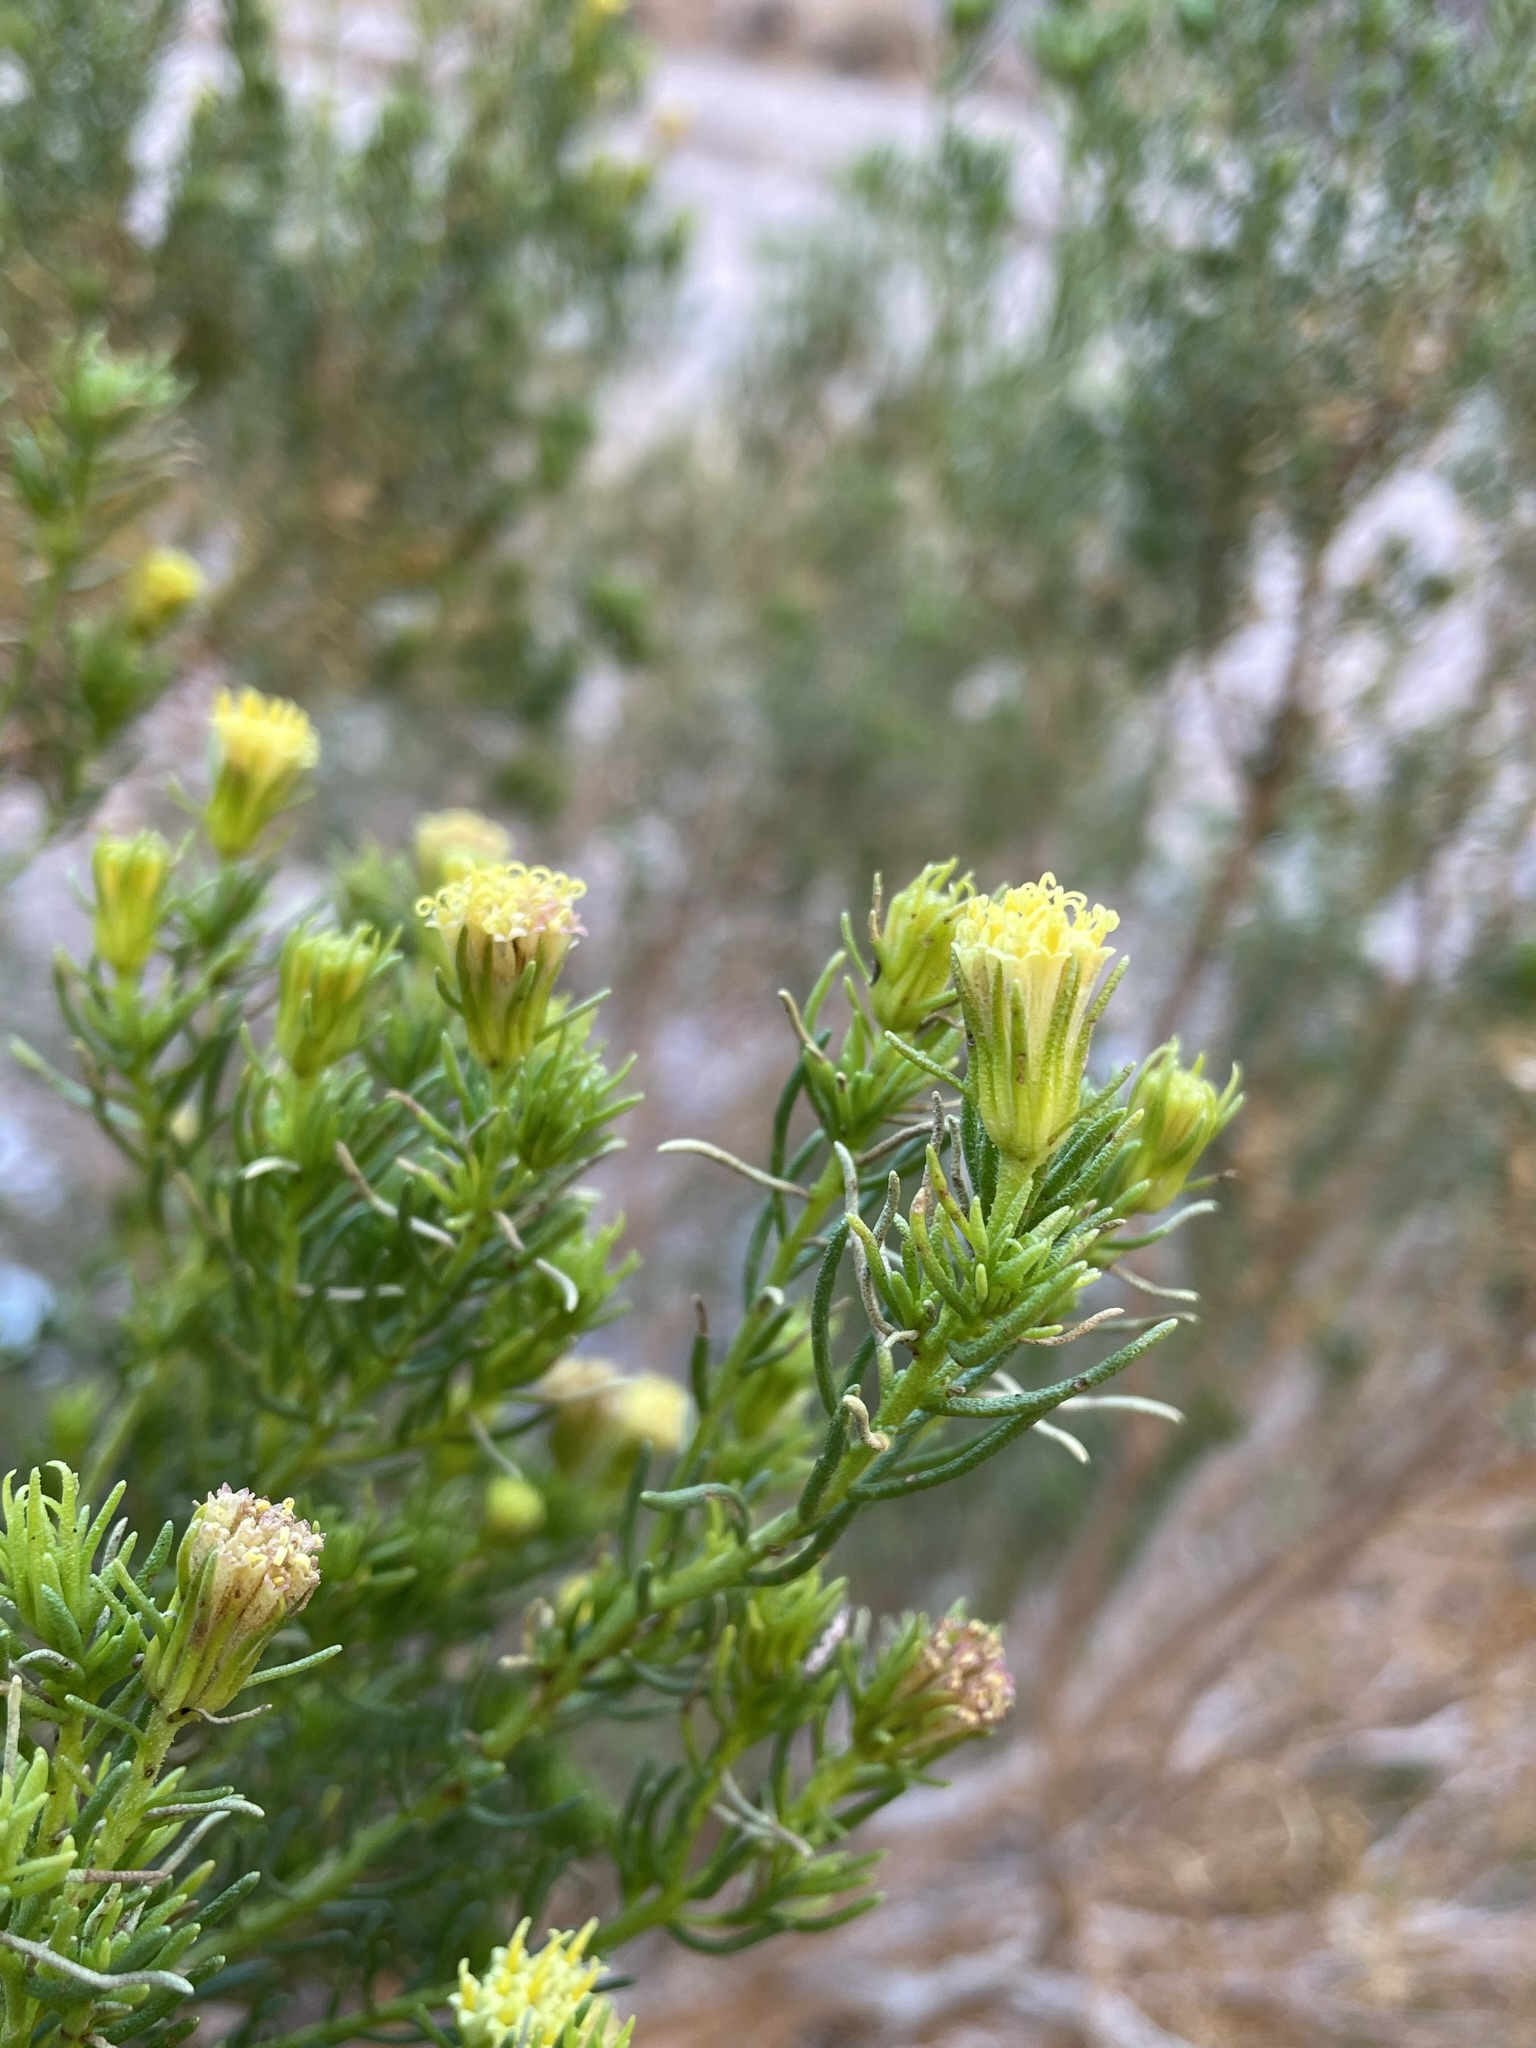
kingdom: Plantae
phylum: Tracheophyta
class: Magnoliopsida
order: Asterales
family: Asteraceae
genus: Peucephyllum
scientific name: Peucephyllum schottii
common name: Pygmy-cedar
